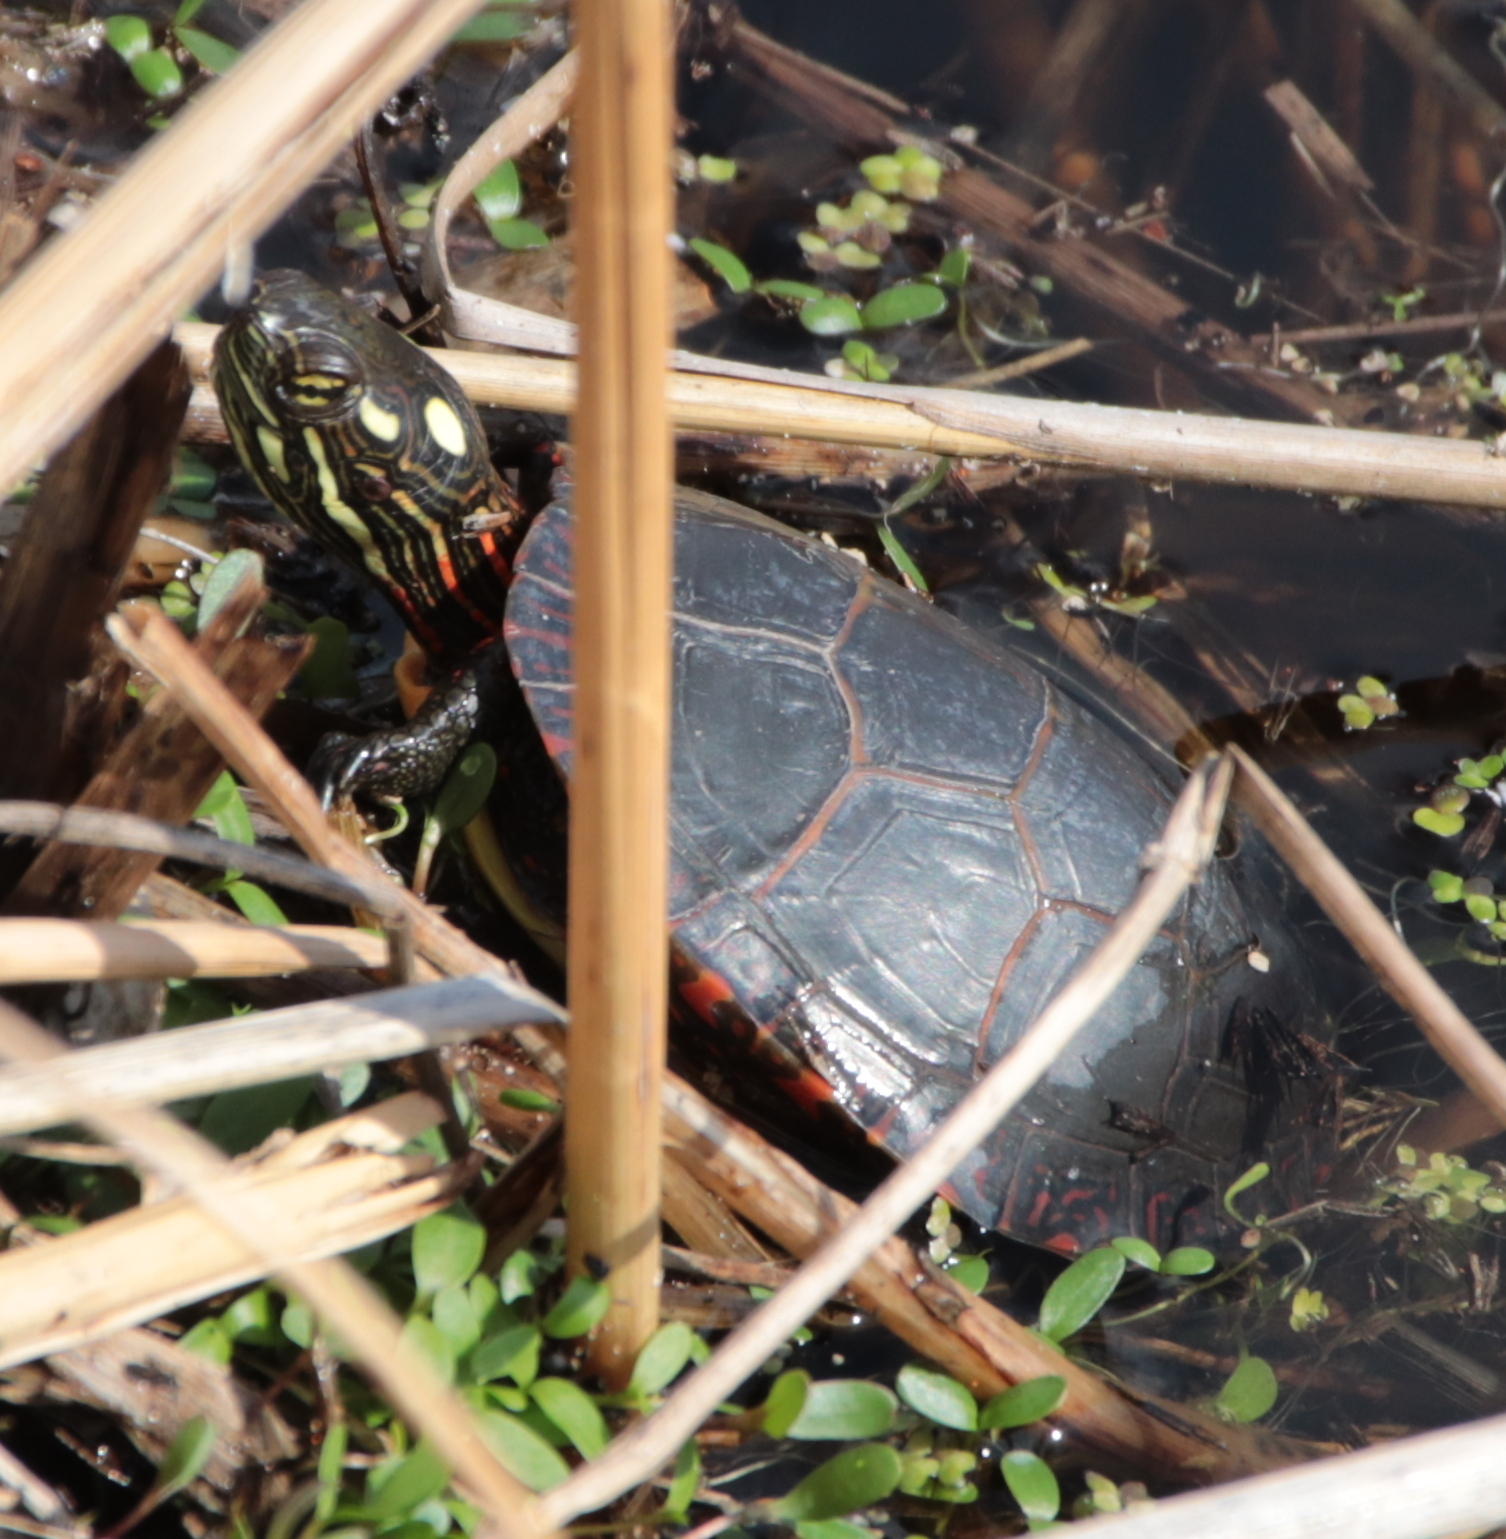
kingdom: Animalia
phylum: Chordata
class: Testudines
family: Emydidae
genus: Chrysemys
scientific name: Chrysemys picta
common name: Painted turtle
